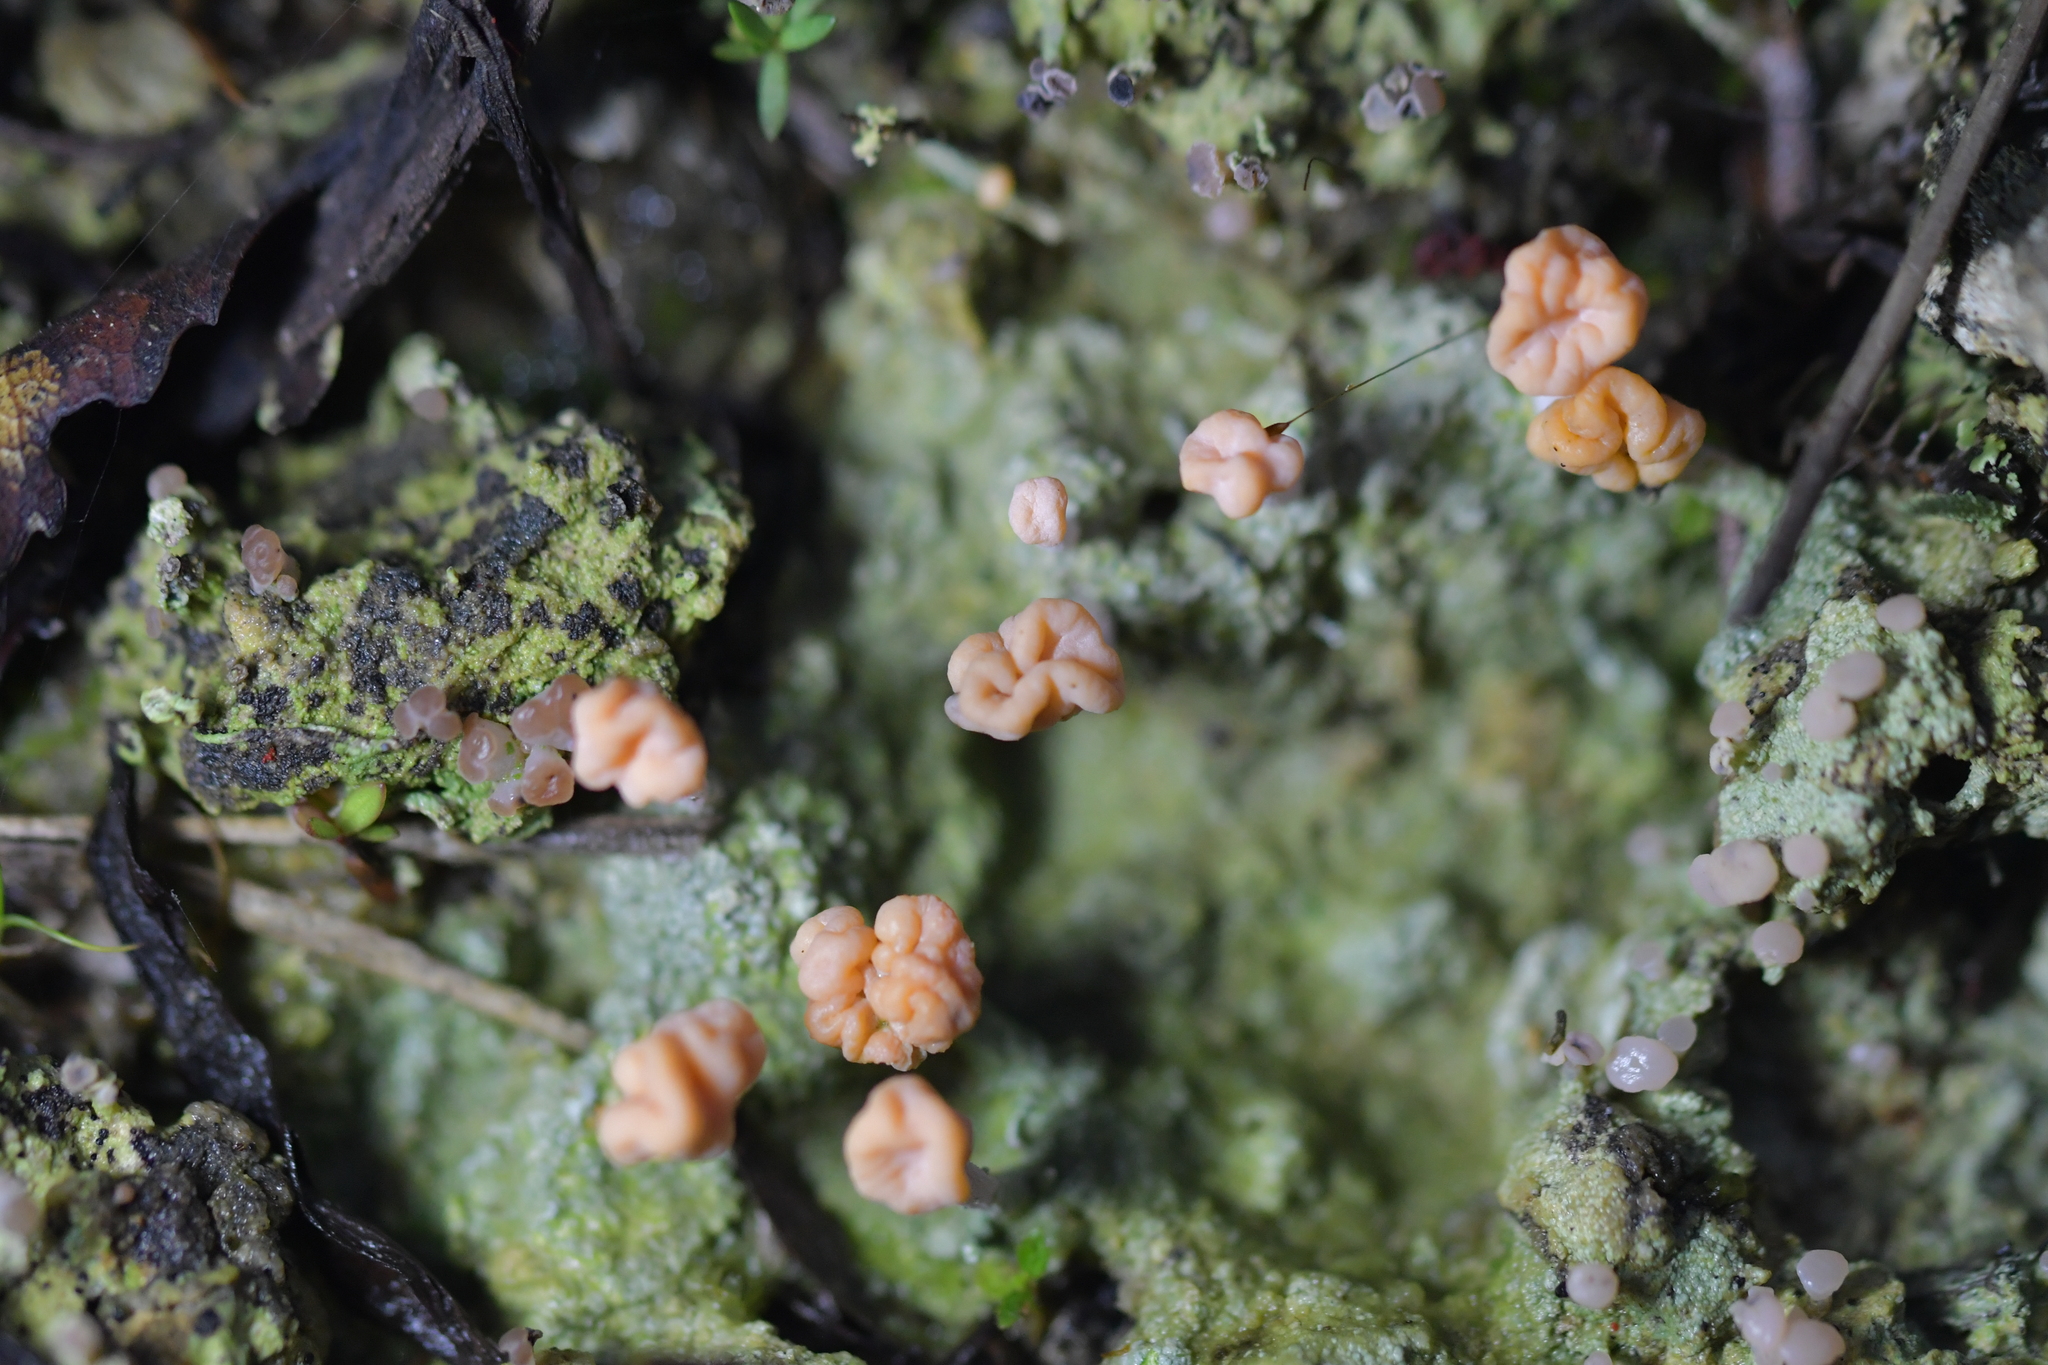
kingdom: Fungi
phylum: Ascomycota
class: Lecanoromycetes
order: Pertusariales
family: Icmadophilaceae
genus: Dibaeis
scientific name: Dibaeis arcuata
